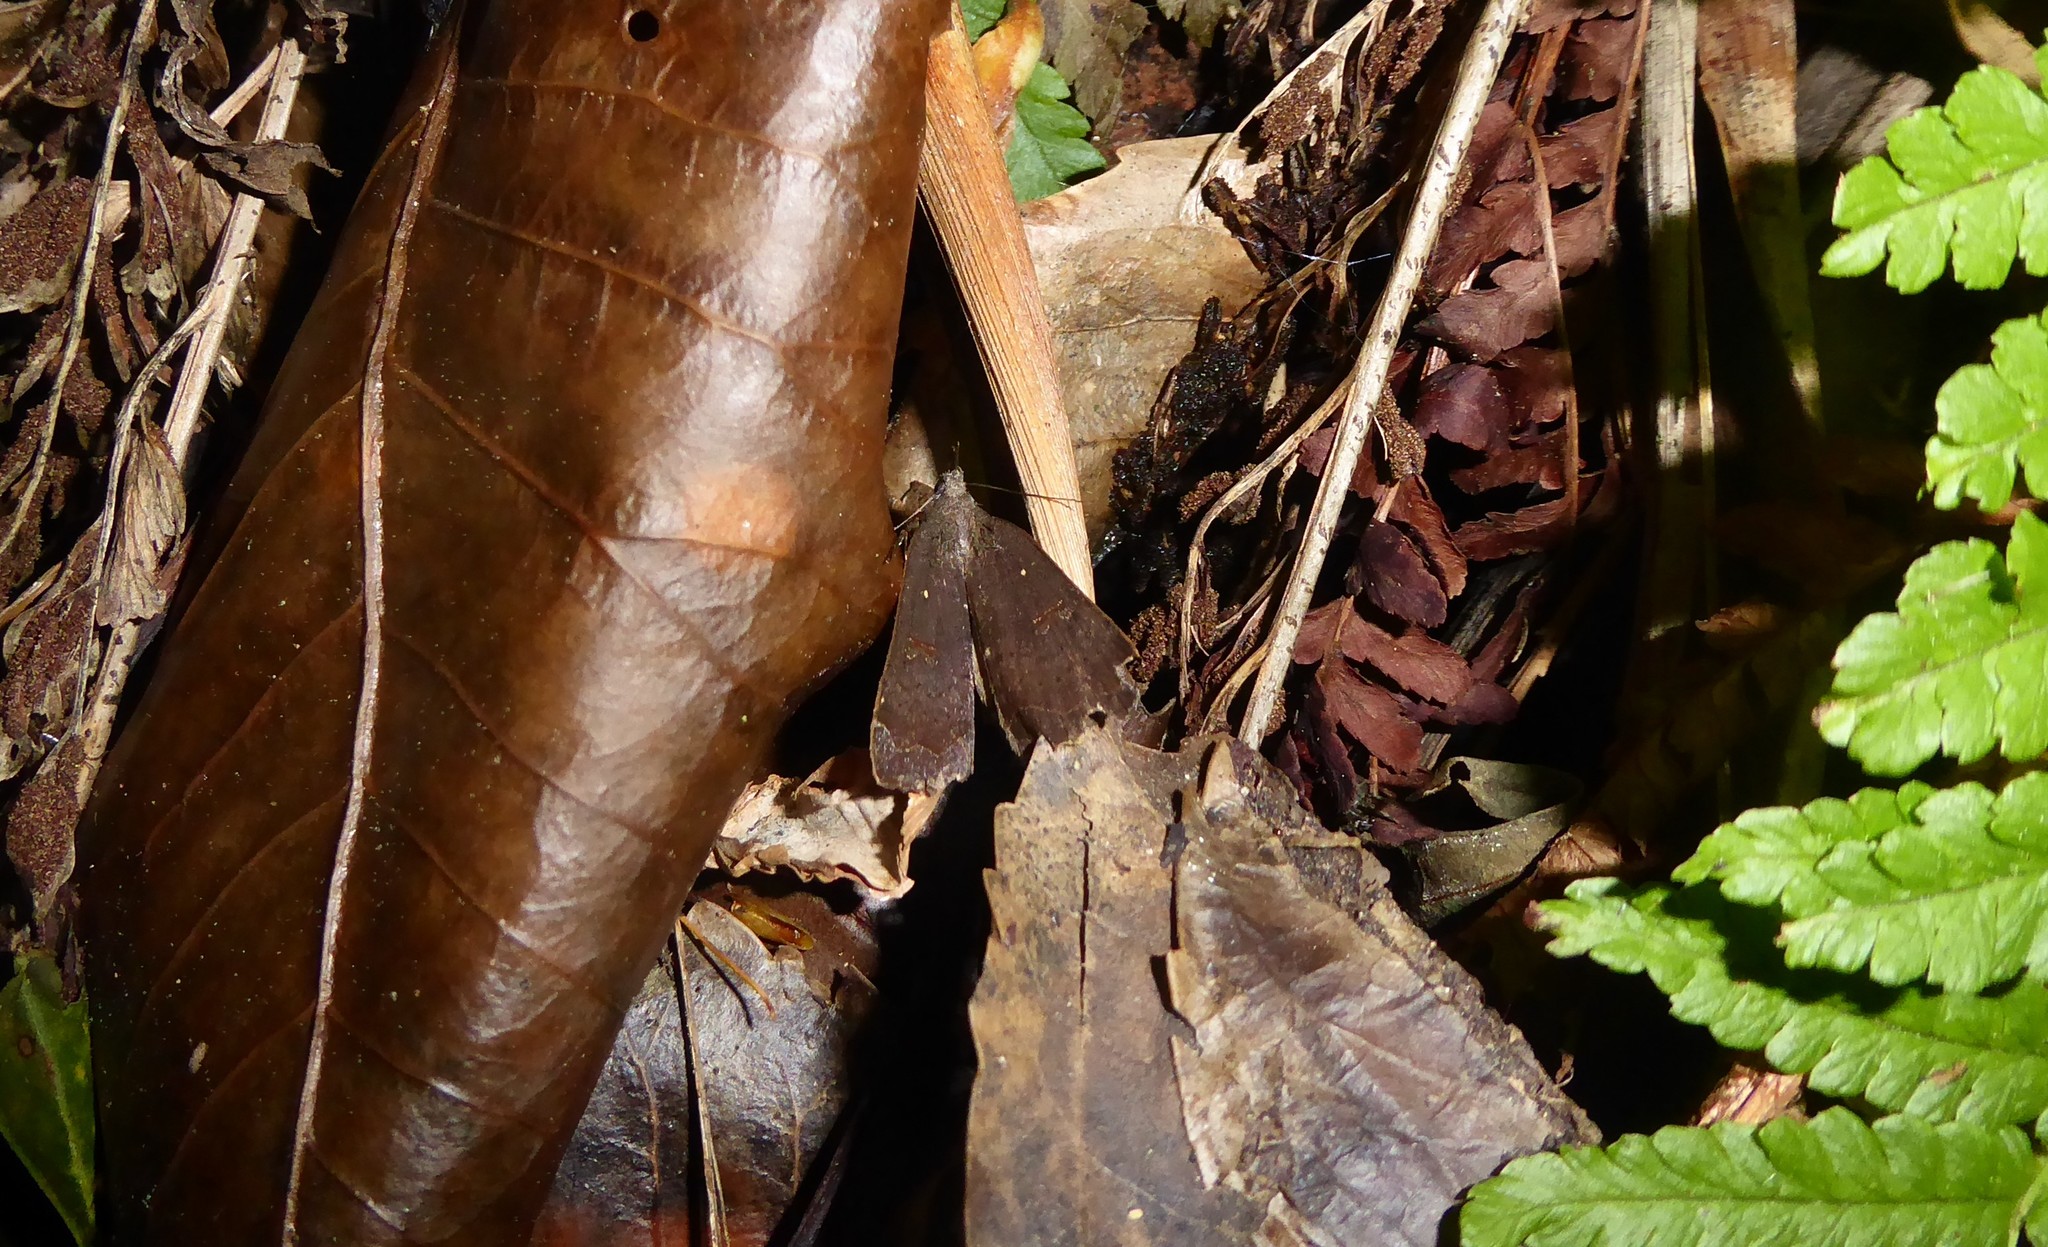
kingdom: Animalia
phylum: Arthropoda
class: Insecta
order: Lepidoptera
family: Erebidae
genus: Rhapsa
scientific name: Rhapsa scotosialis
